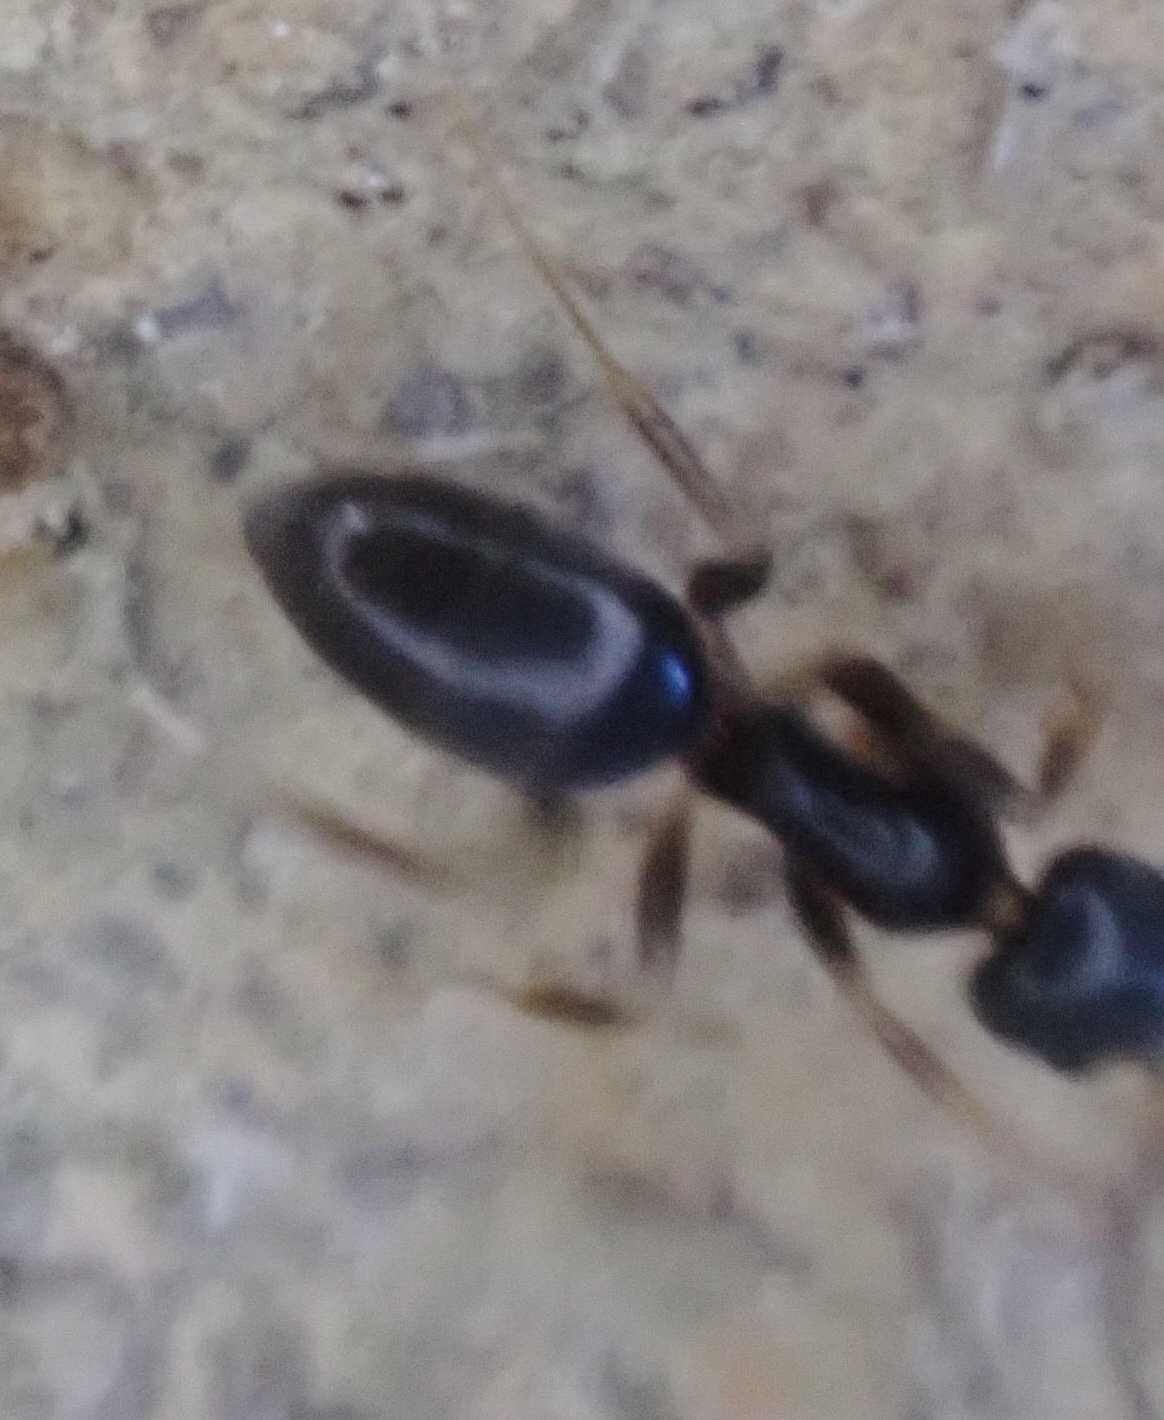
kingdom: Animalia
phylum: Arthropoda
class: Insecta
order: Hymenoptera
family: Formicidae
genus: Tapinoma
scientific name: Tapinoma sessile
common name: Odorous house ant
